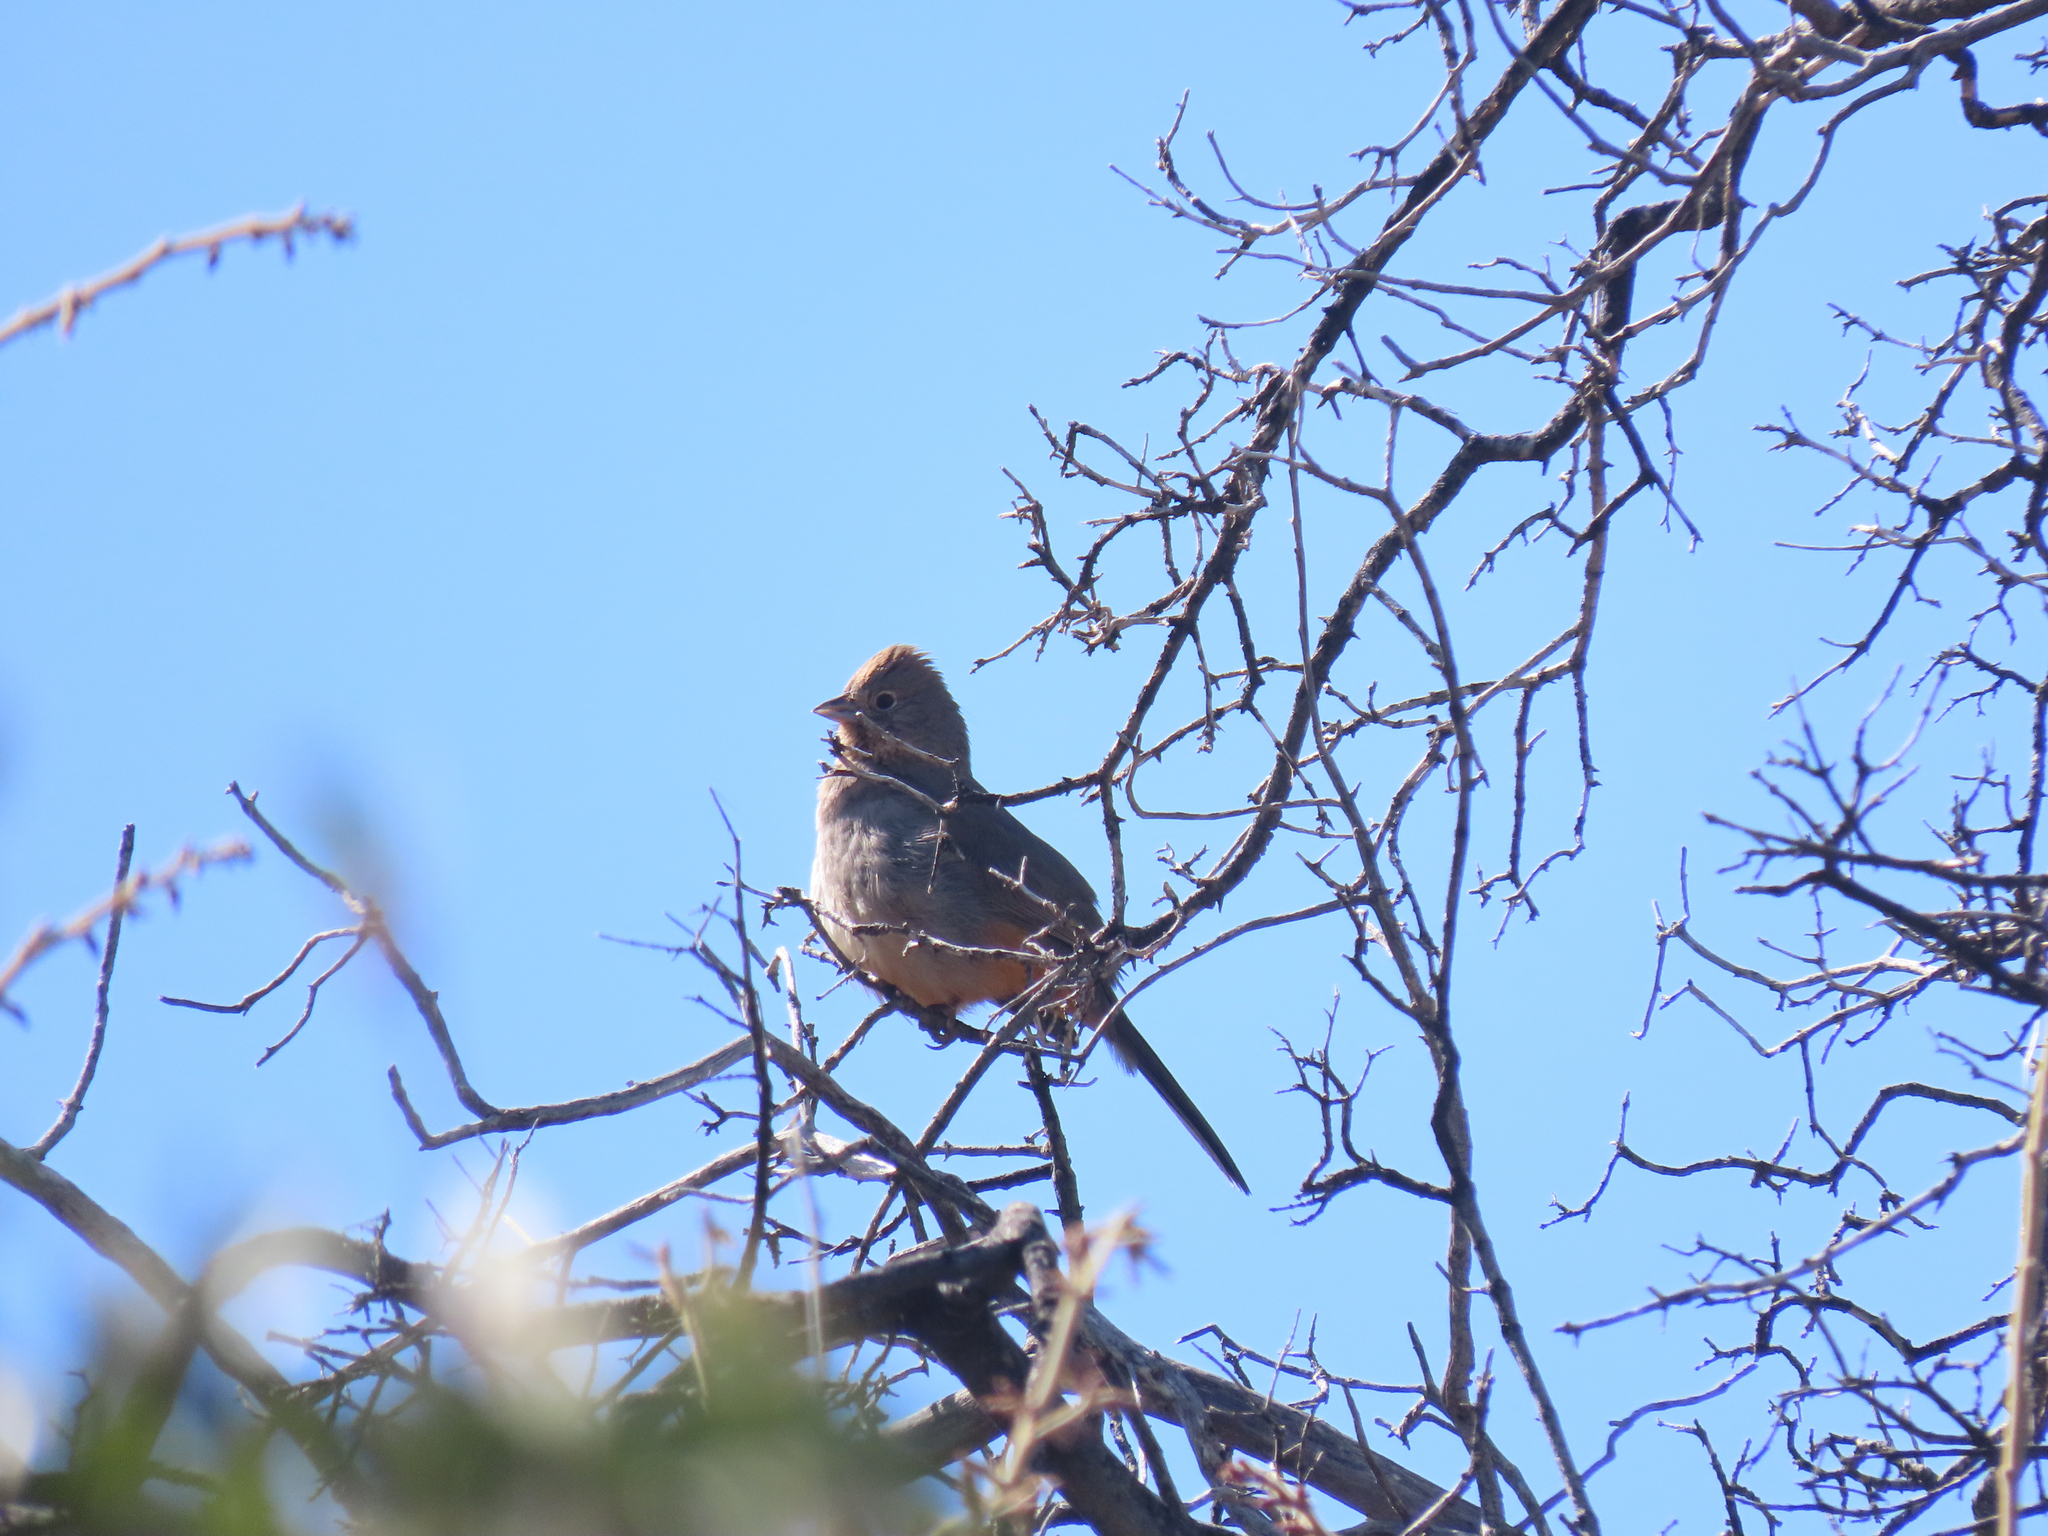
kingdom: Animalia
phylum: Chordata
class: Aves
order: Passeriformes
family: Passerellidae
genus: Melozone
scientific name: Melozone fusca
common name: Canyon towhee
